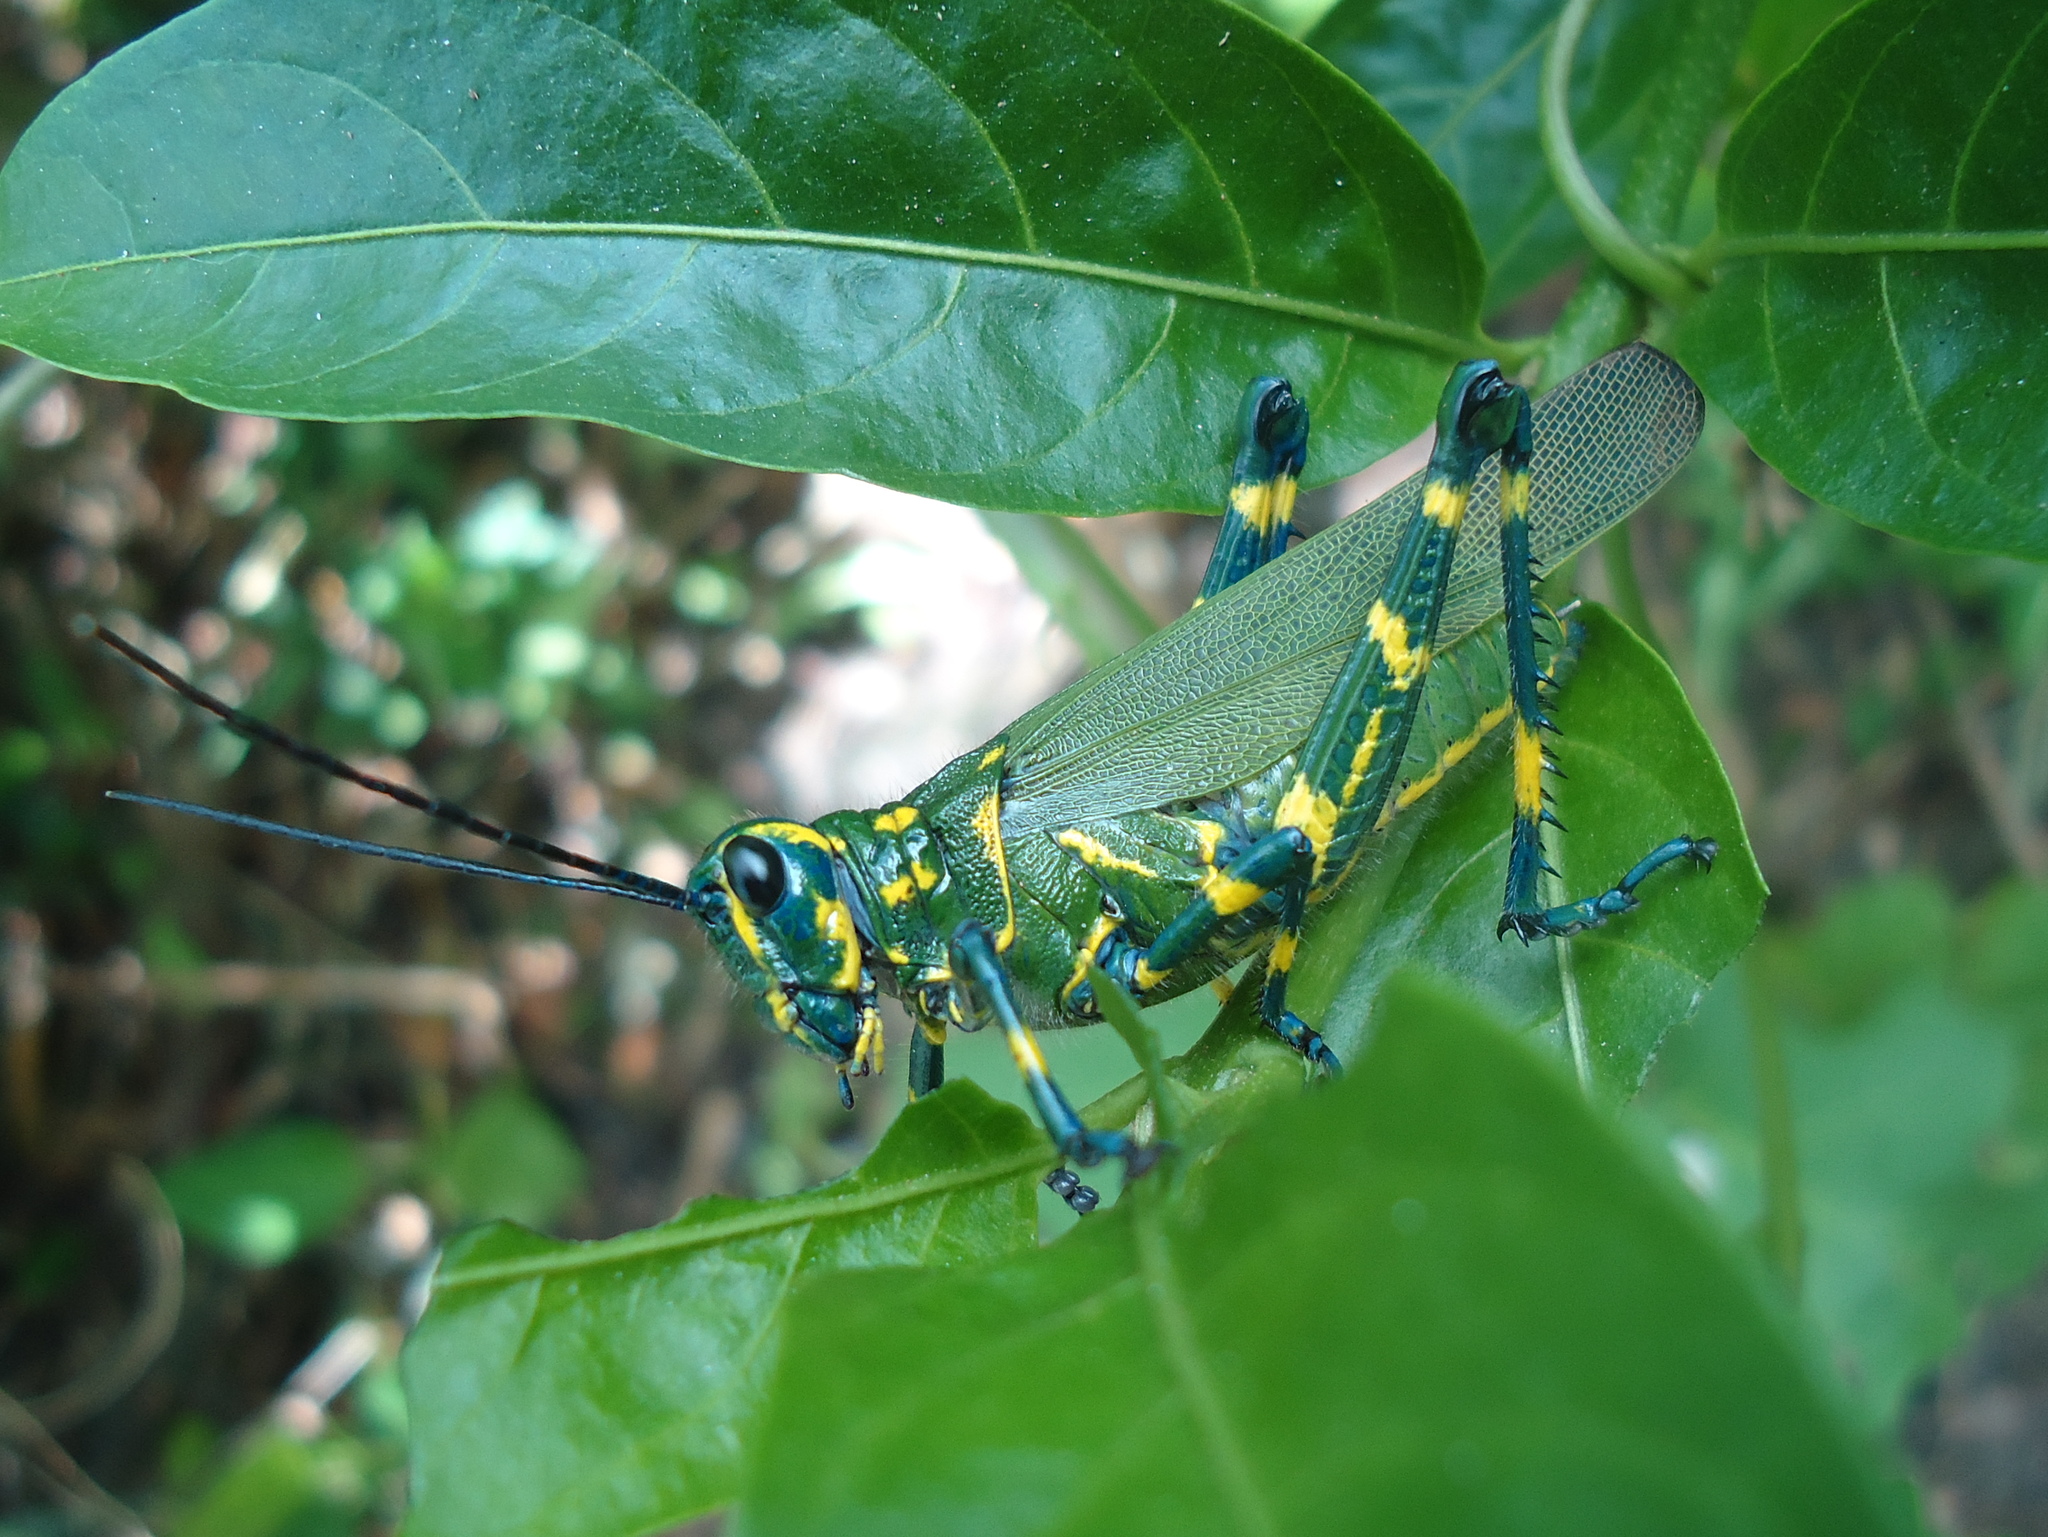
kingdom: Animalia
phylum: Arthropoda
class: Insecta
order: Orthoptera
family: Romaleidae
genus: Chromacris
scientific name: Chromacris speciosa
